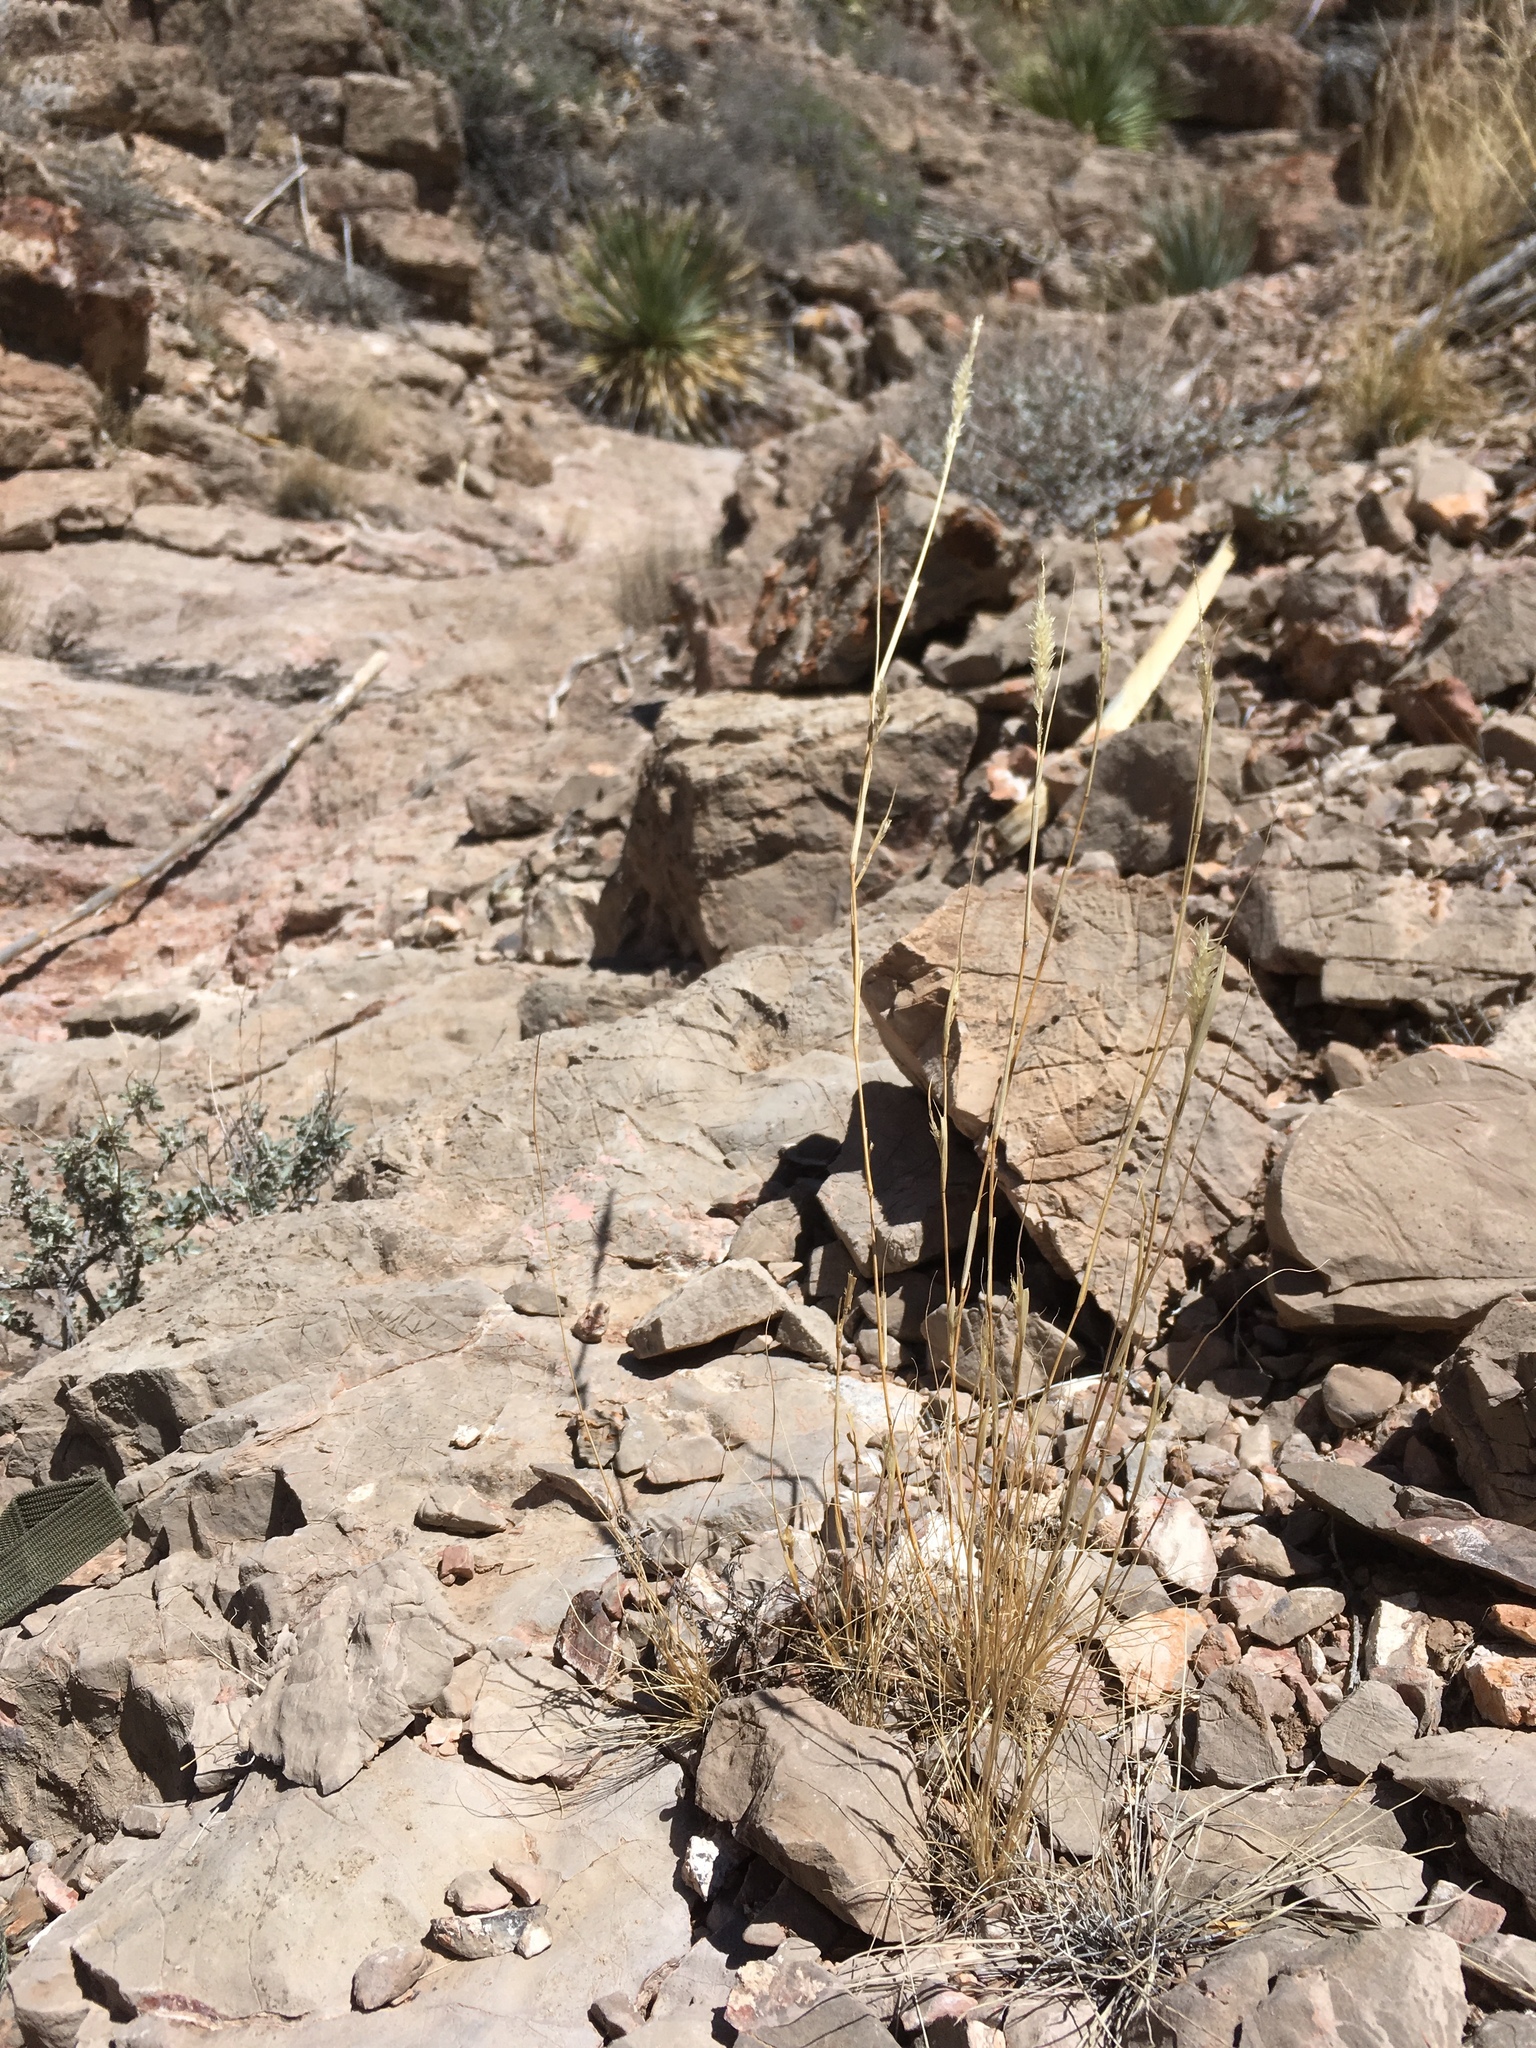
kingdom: Plantae
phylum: Tracheophyta
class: Liliopsida
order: Poales
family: Poaceae
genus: Enneapogon
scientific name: Enneapogon desvauxii
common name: Feather pappus grass
